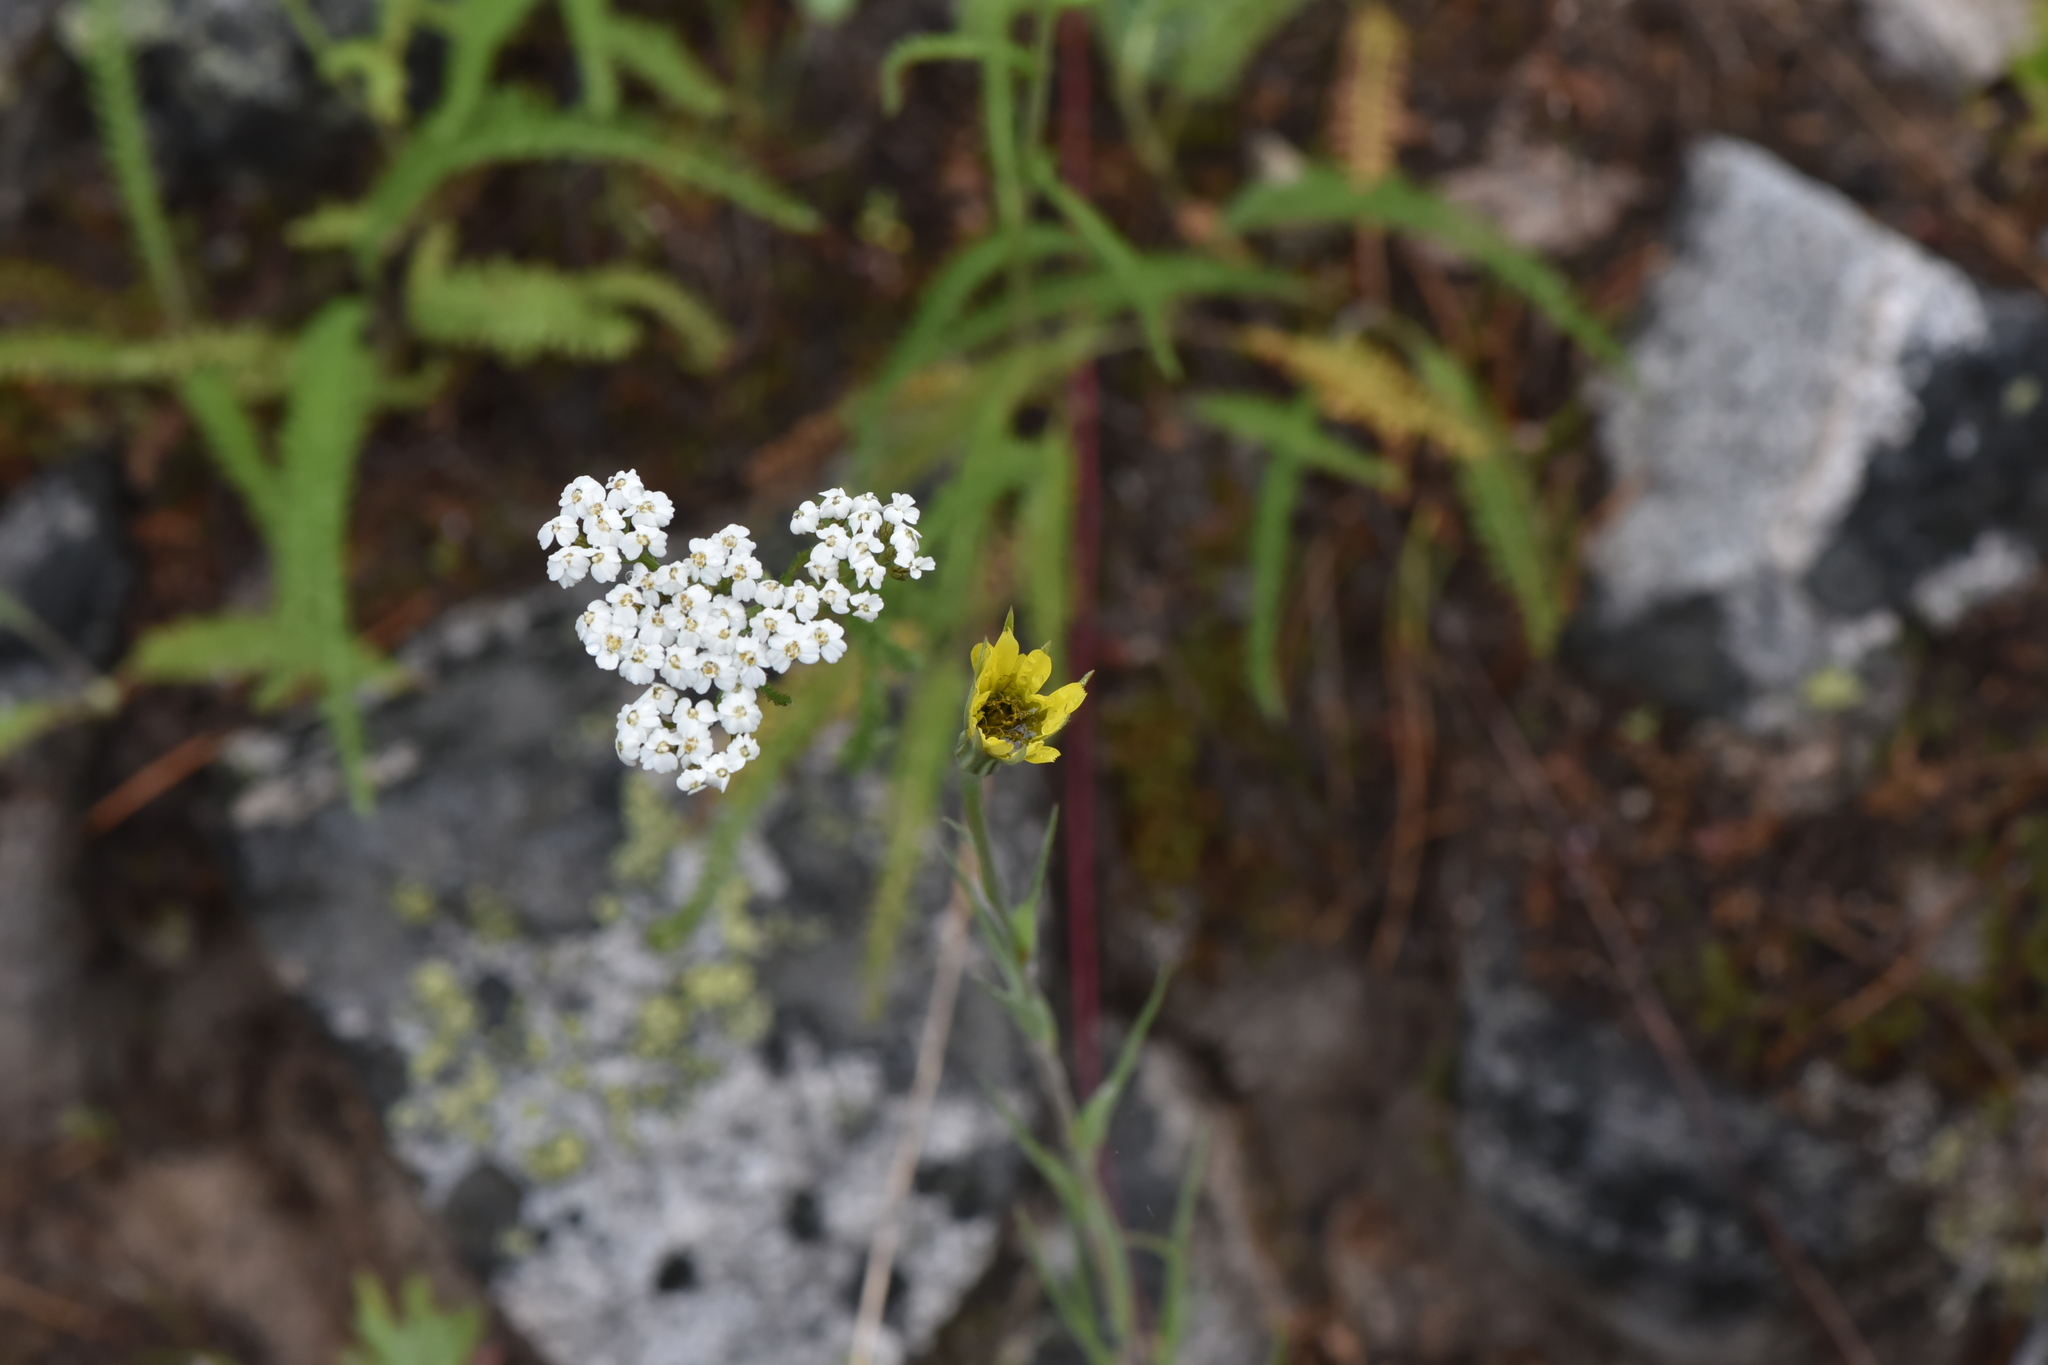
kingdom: Plantae
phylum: Tracheophyta
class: Magnoliopsida
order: Asterales
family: Asteraceae
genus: Tragopogon
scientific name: Tragopogon dubius
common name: Yellow salsify
